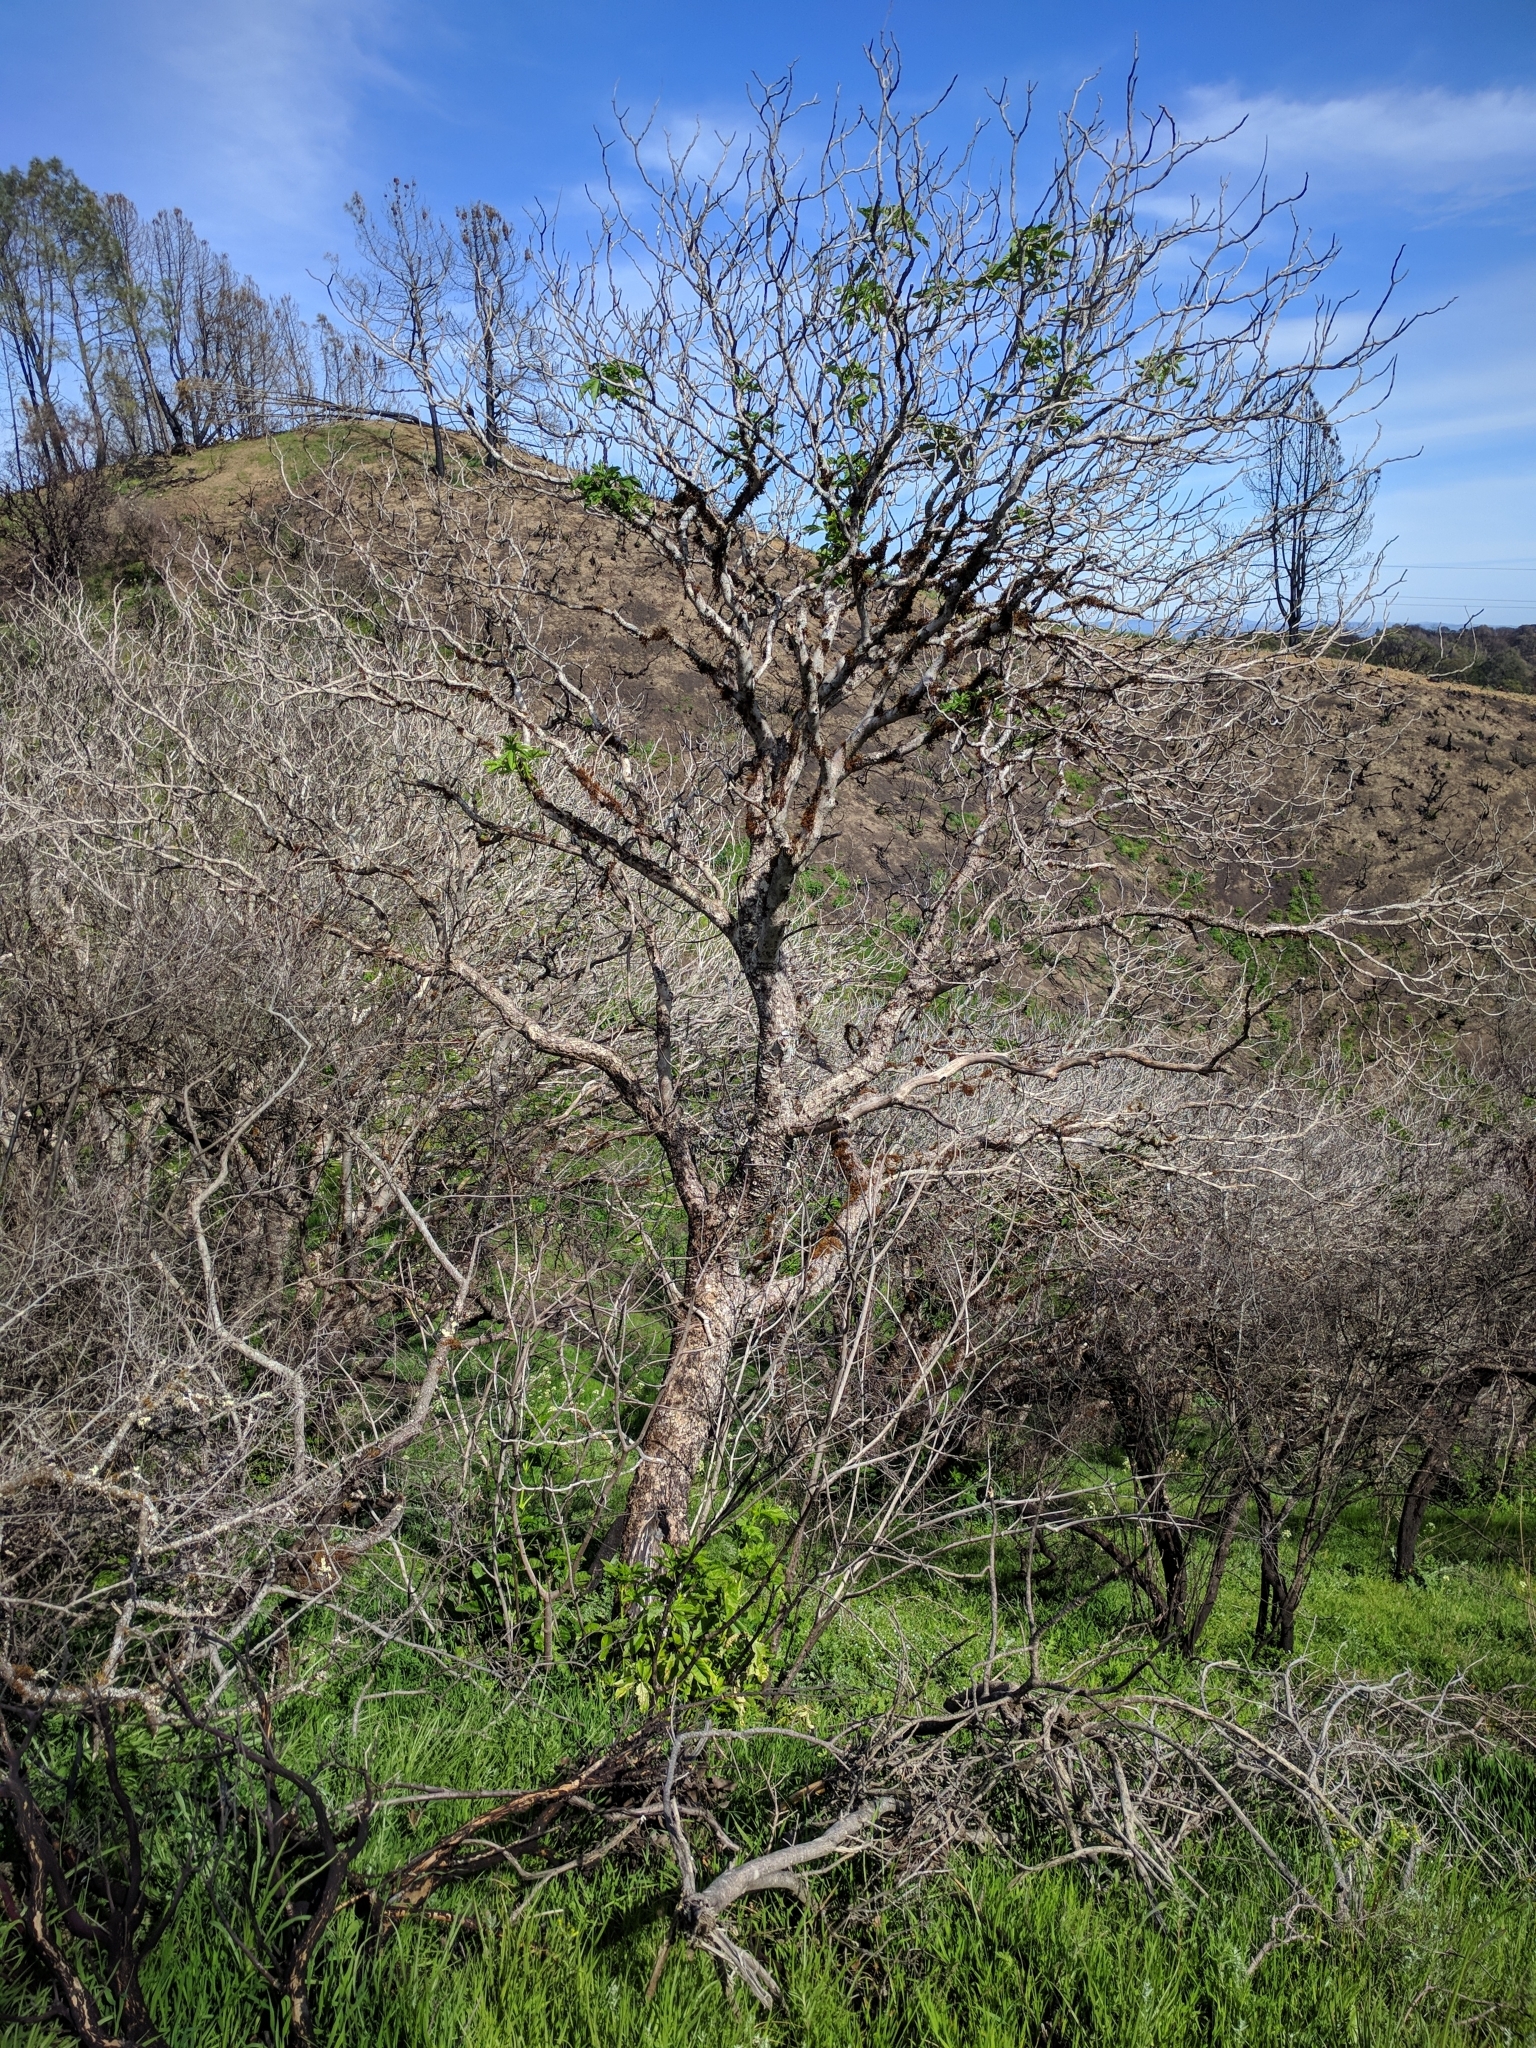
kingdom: Plantae
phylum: Tracheophyta
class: Magnoliopsida
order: Sapindales
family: Sapindaceae
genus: Aesculus
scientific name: Aesculus californica
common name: California buckeye
